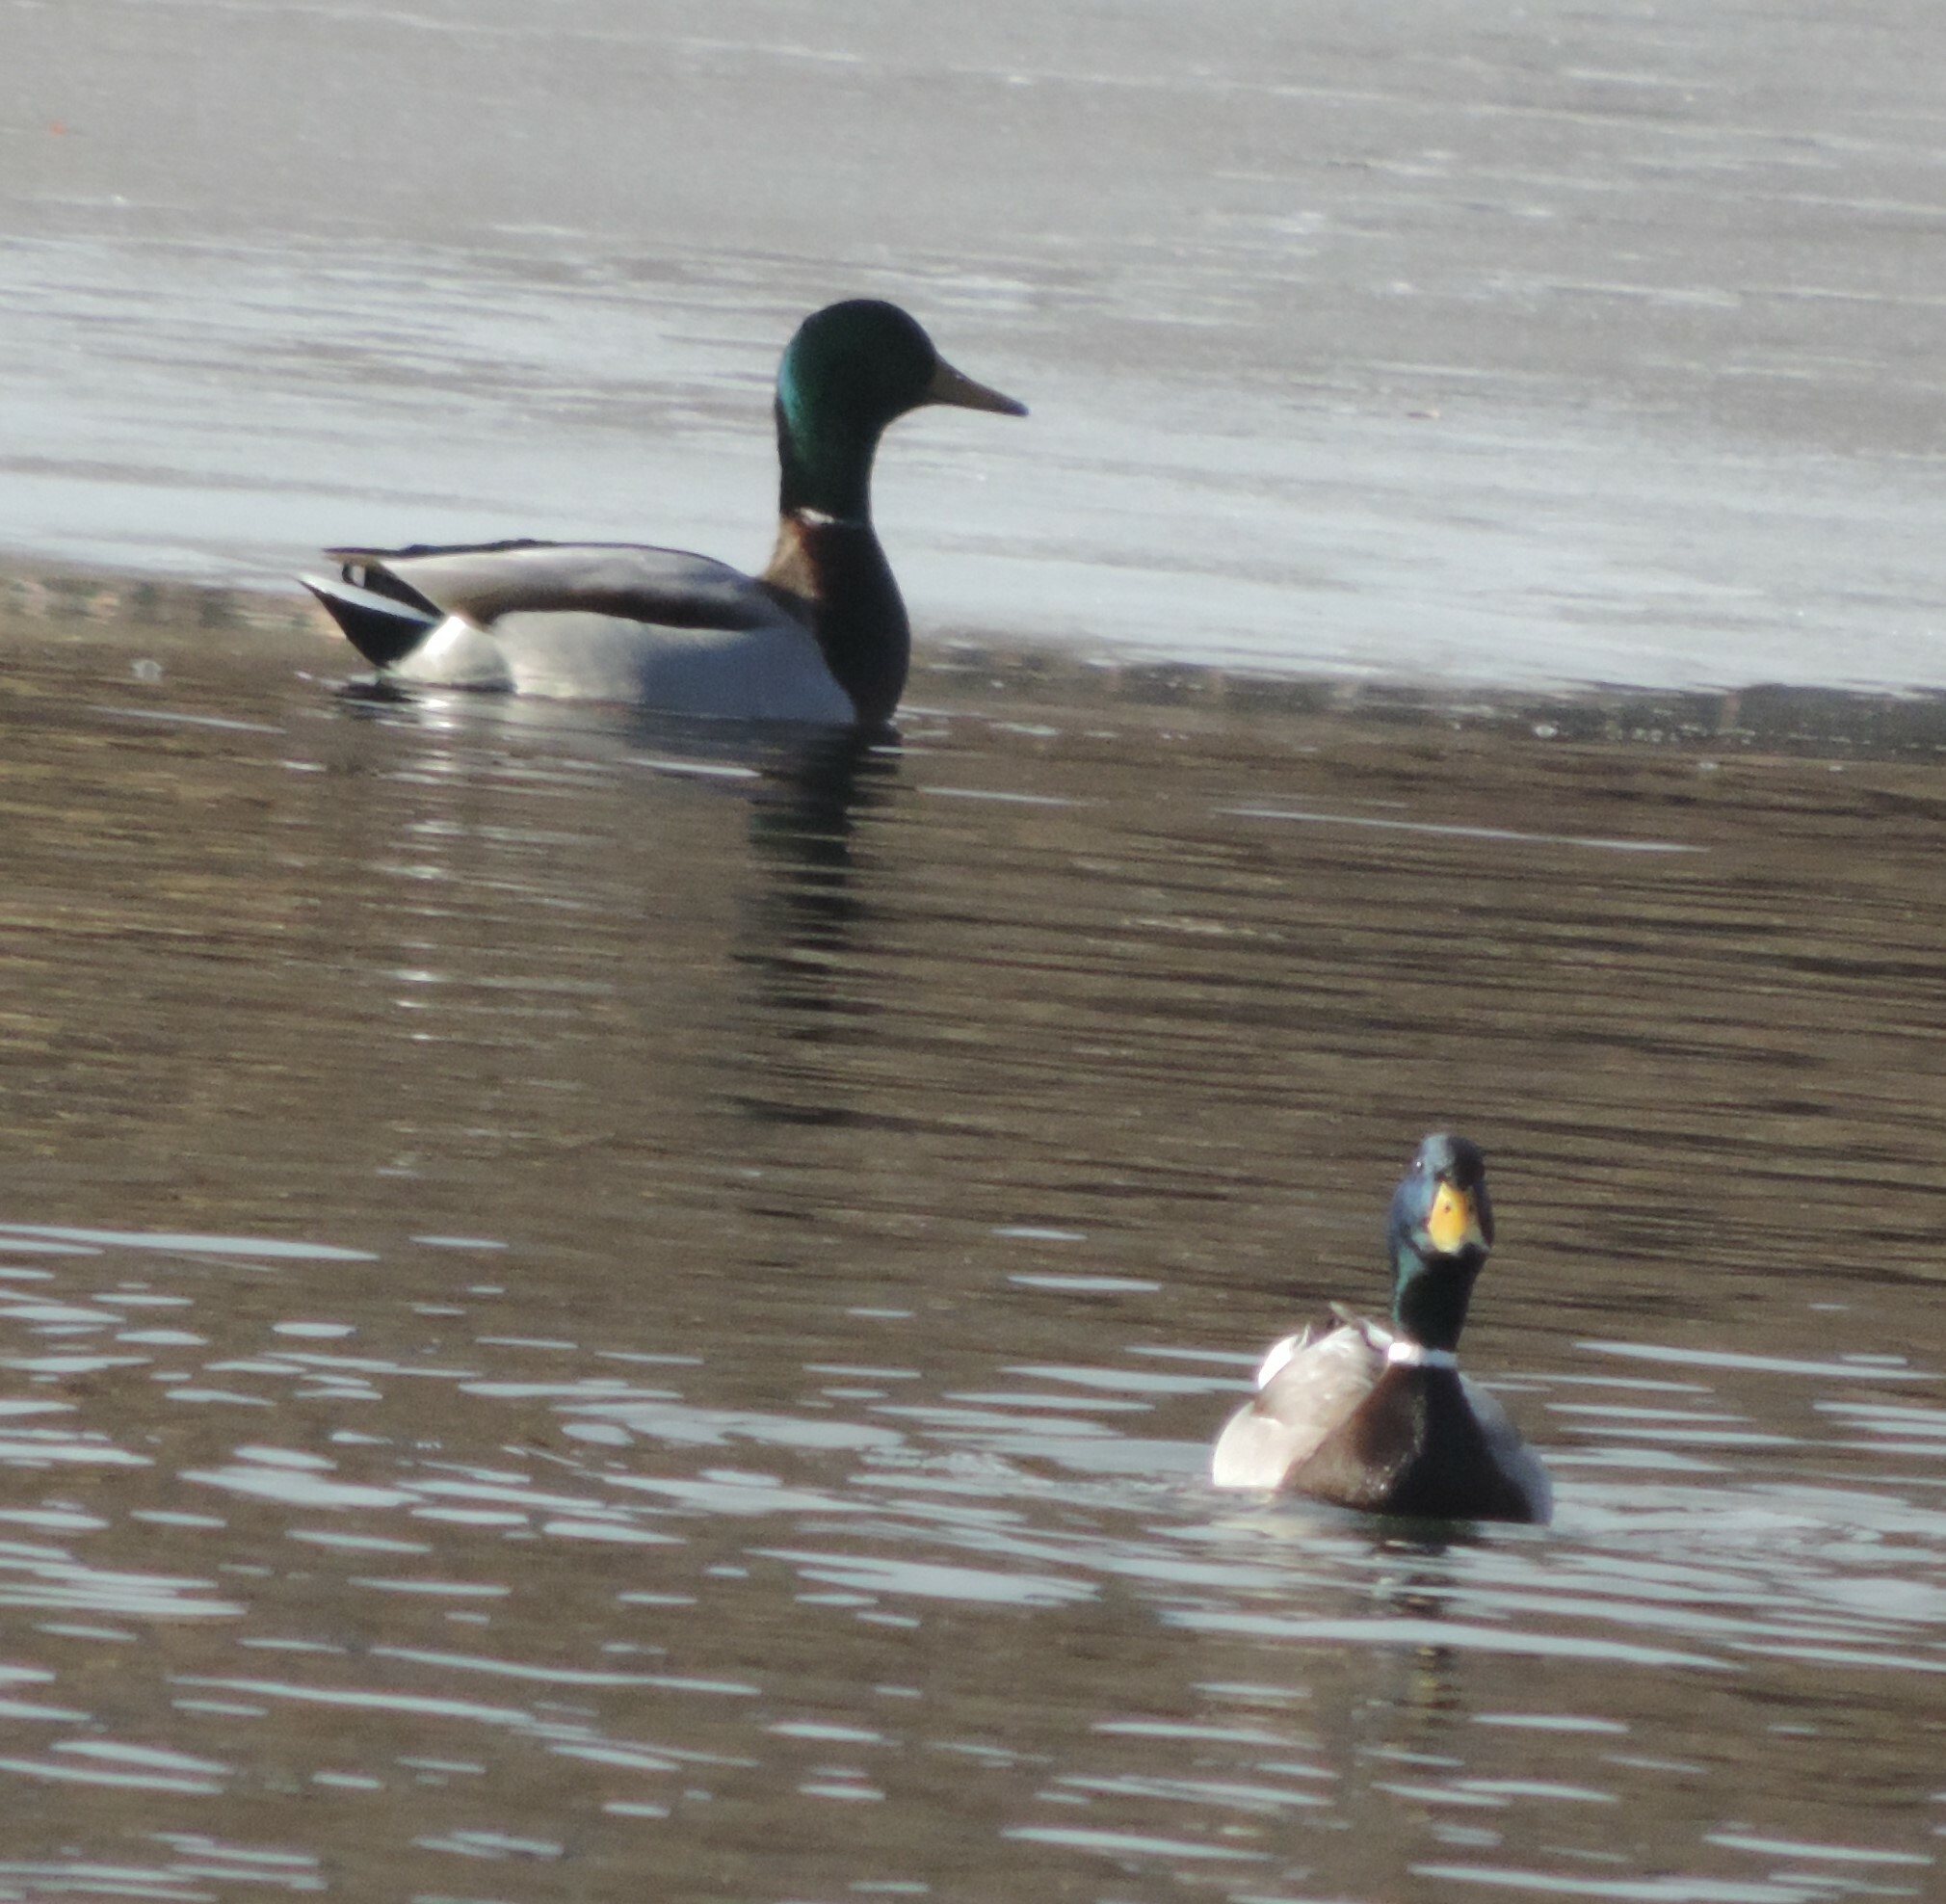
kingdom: Animalia
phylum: Chordata
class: Aves
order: Anseriformes
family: Anatidae
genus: Anas
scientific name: Anas platyrhynchos
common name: Mallard
